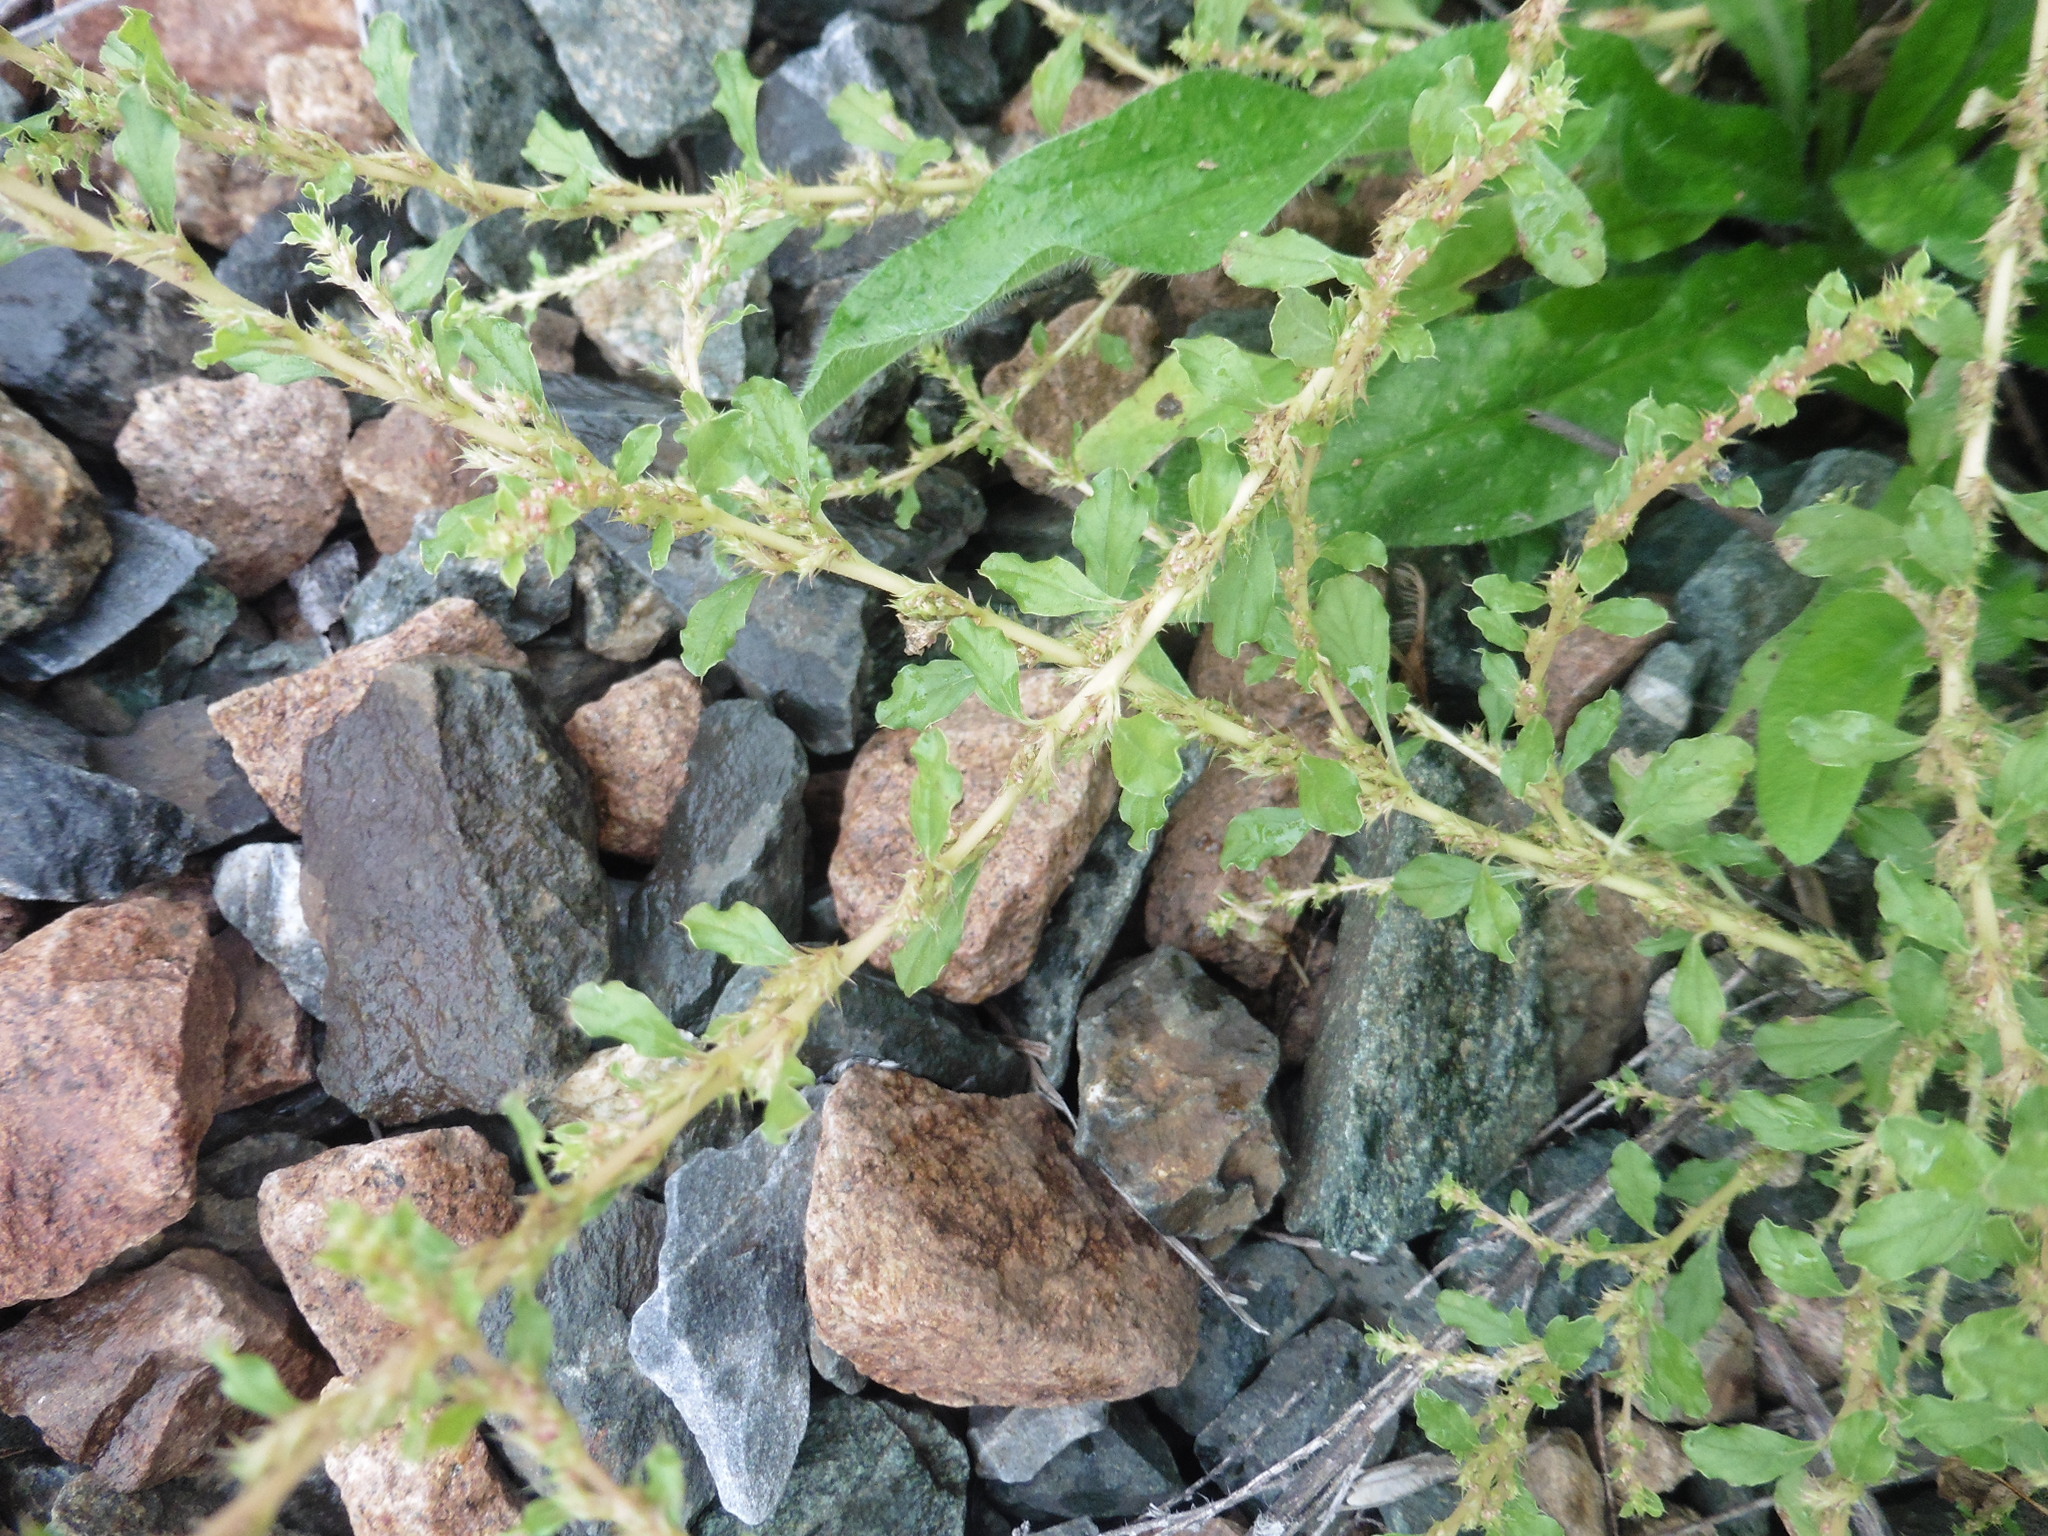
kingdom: Plantae
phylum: Tracheophyta
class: Magnoliopsida
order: Caryophyllales
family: Amaranthaceae
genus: Amaranthus
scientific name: Amaranthus albus
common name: White pigweed
